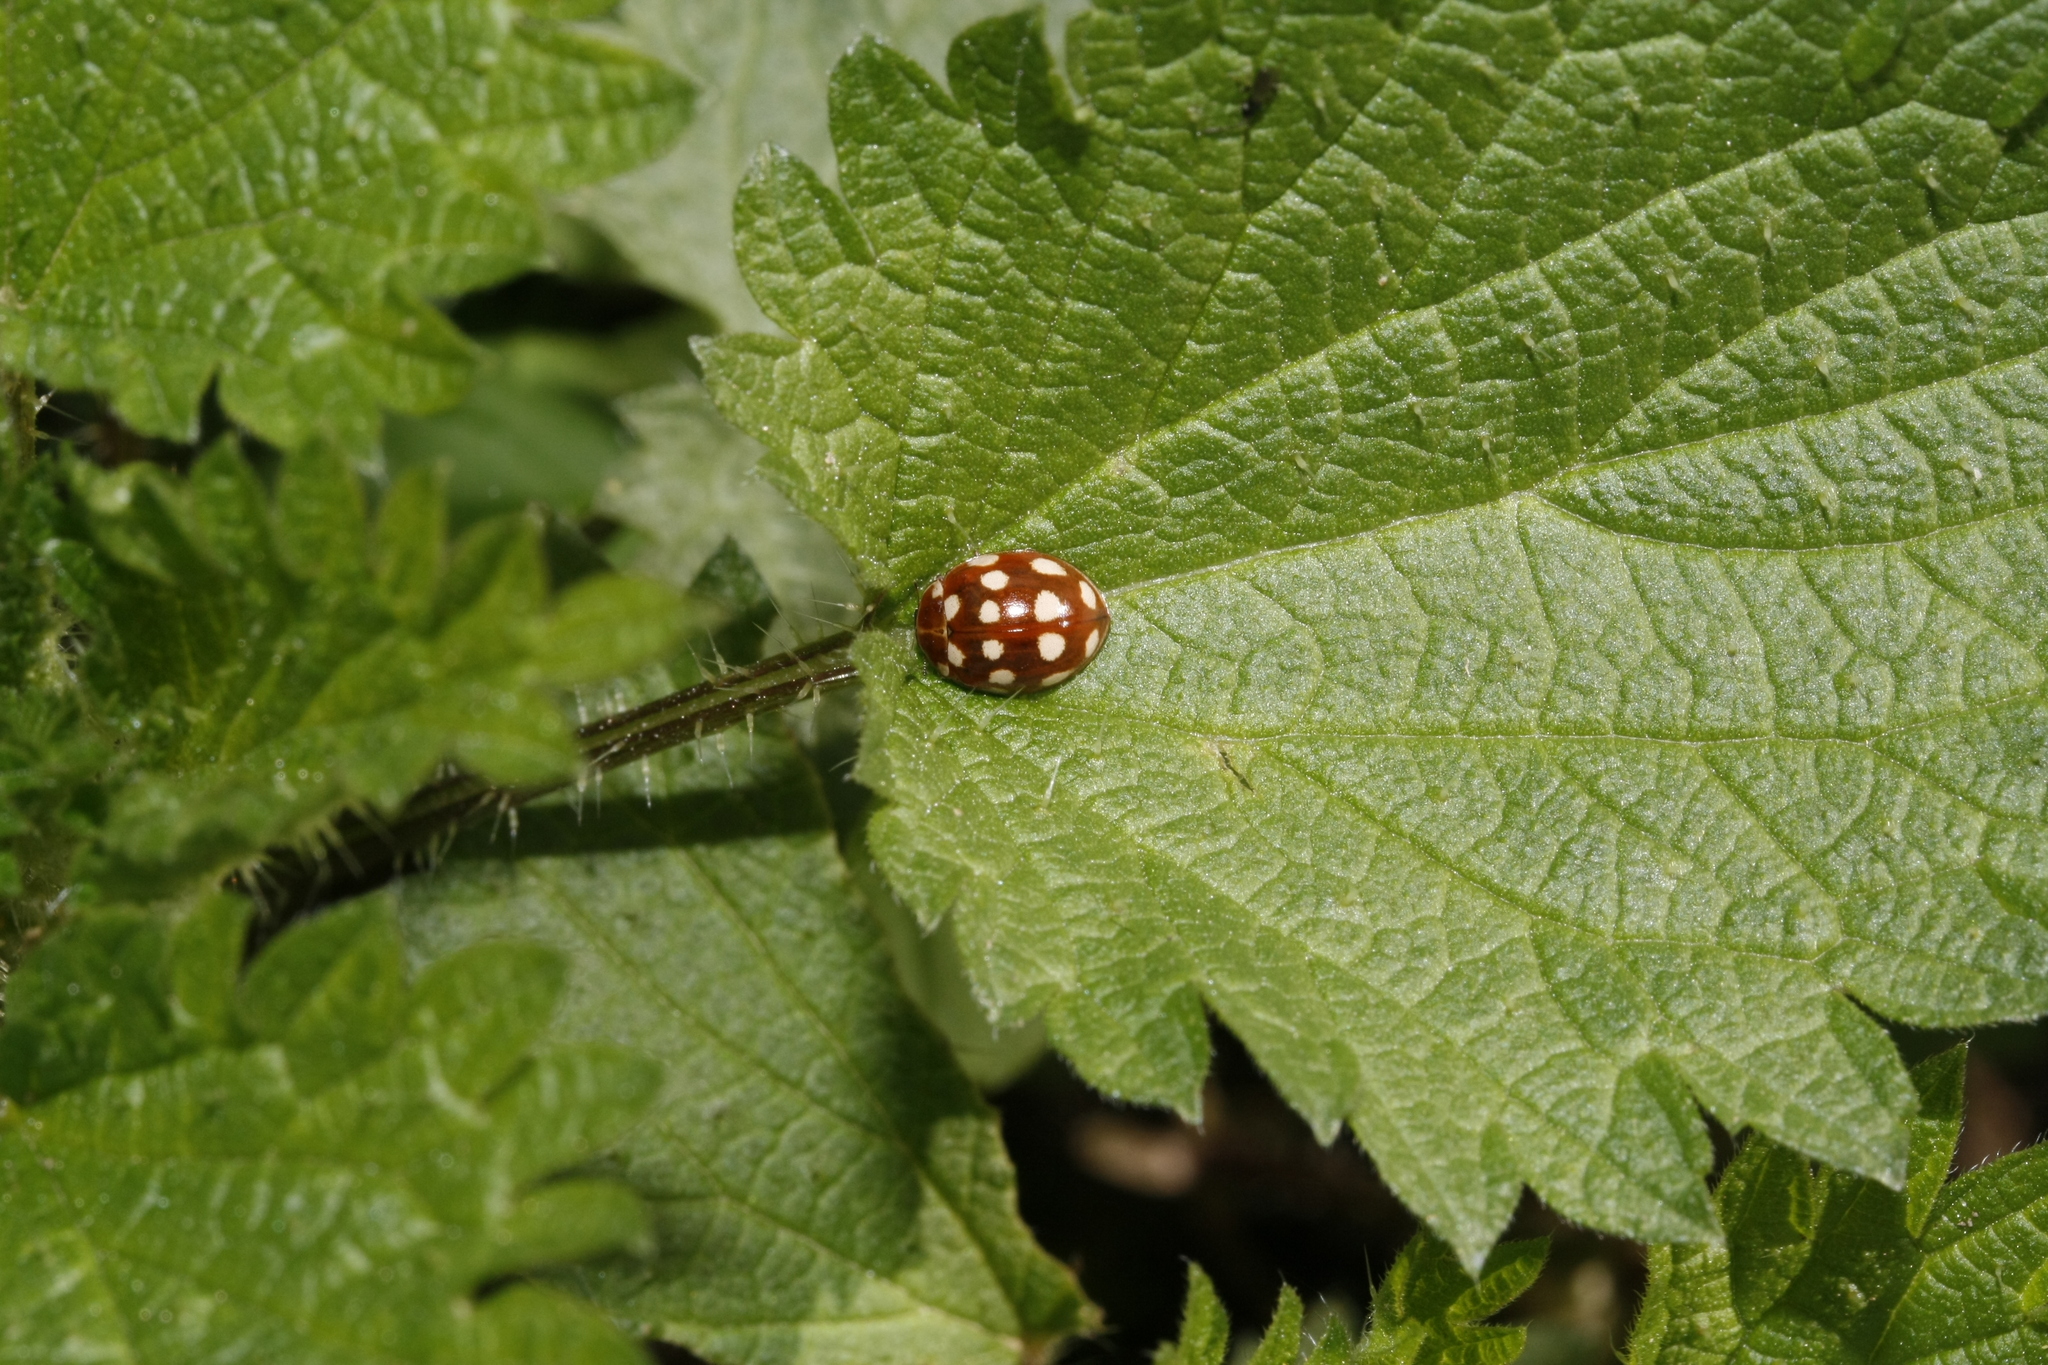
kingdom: Animalia
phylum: Arthropoda
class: Insecta
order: Coleoptera
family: Coccinellidae
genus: Calvia
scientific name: Calvia quatuordecimguttata
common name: Cream-spot ladybird
